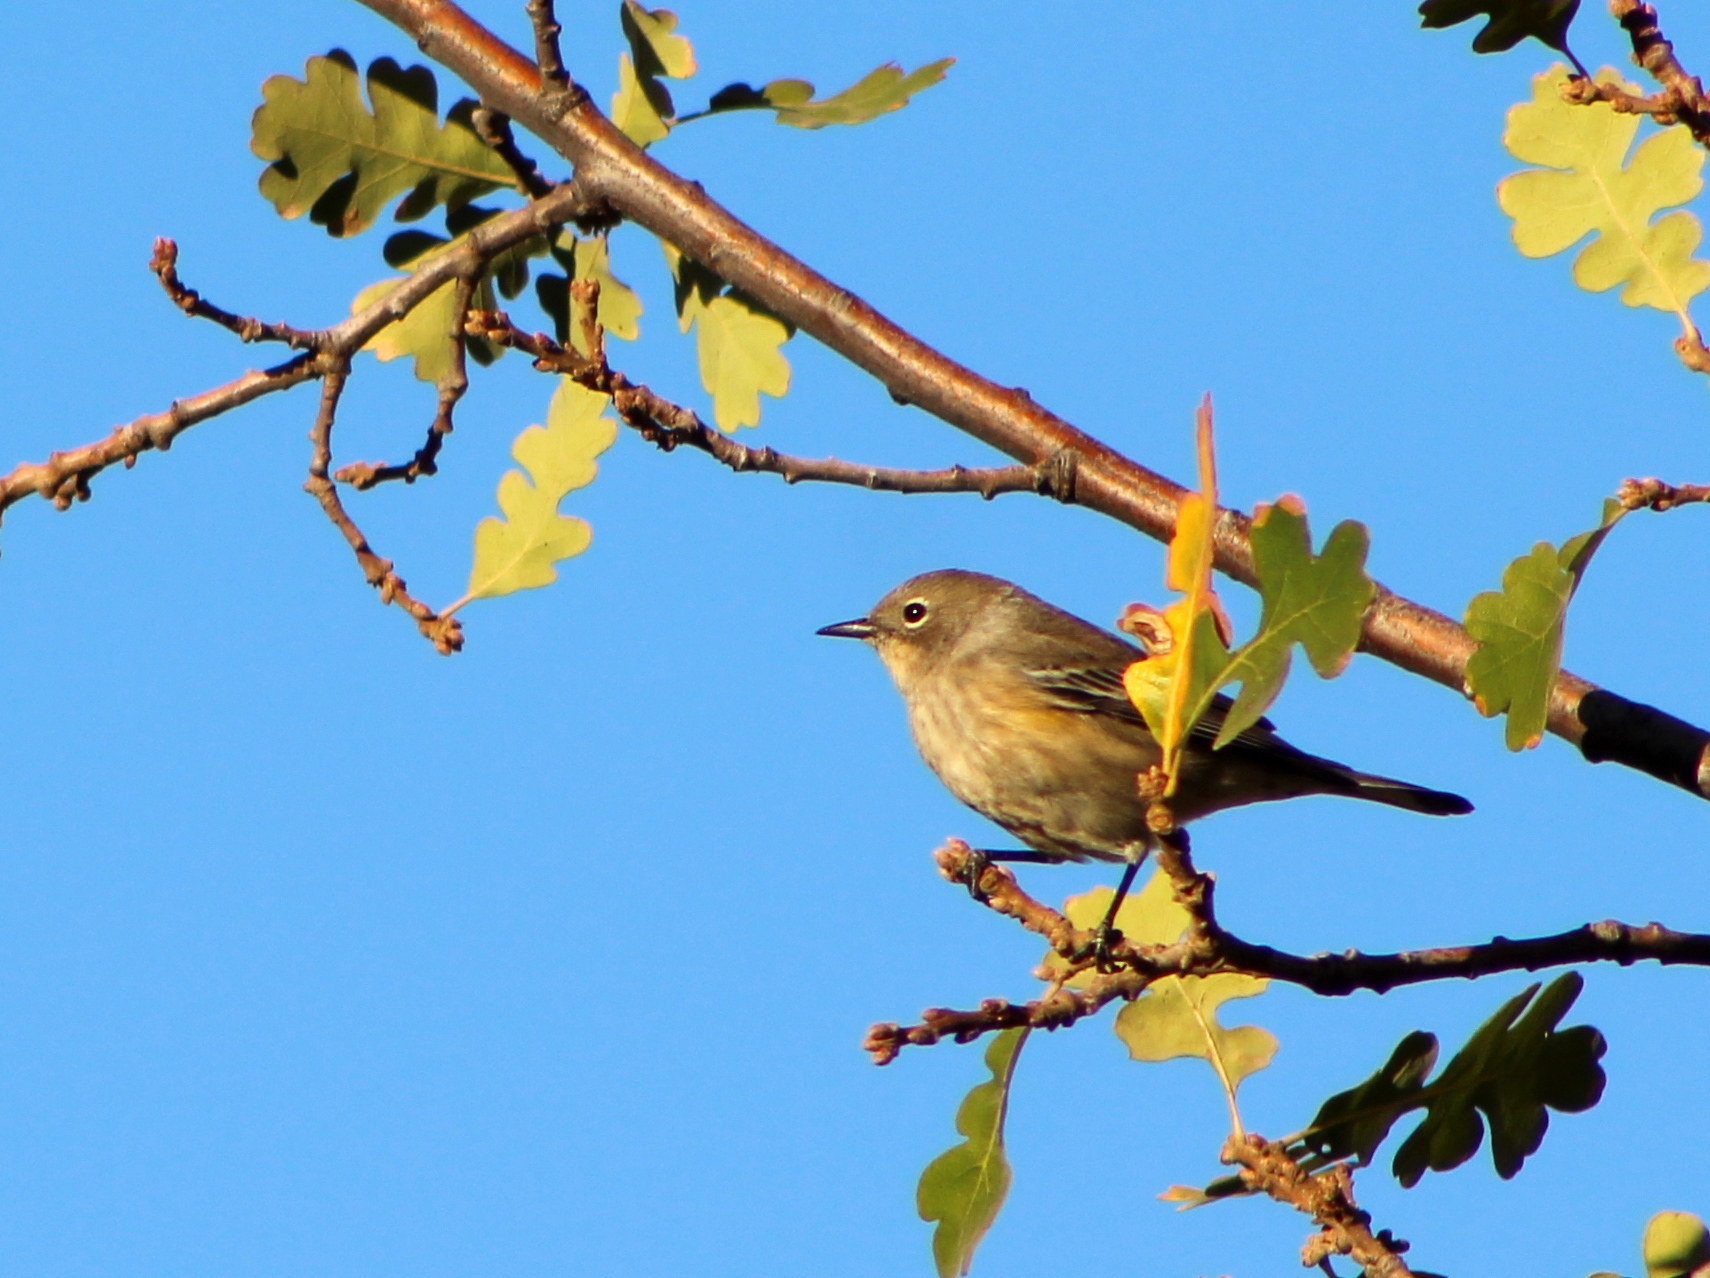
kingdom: Animalia
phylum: Chordata
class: Aves
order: Passeriformes
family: Parulidae
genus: Setophaga
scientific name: Setophaga coronata
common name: Myrtle warbler
